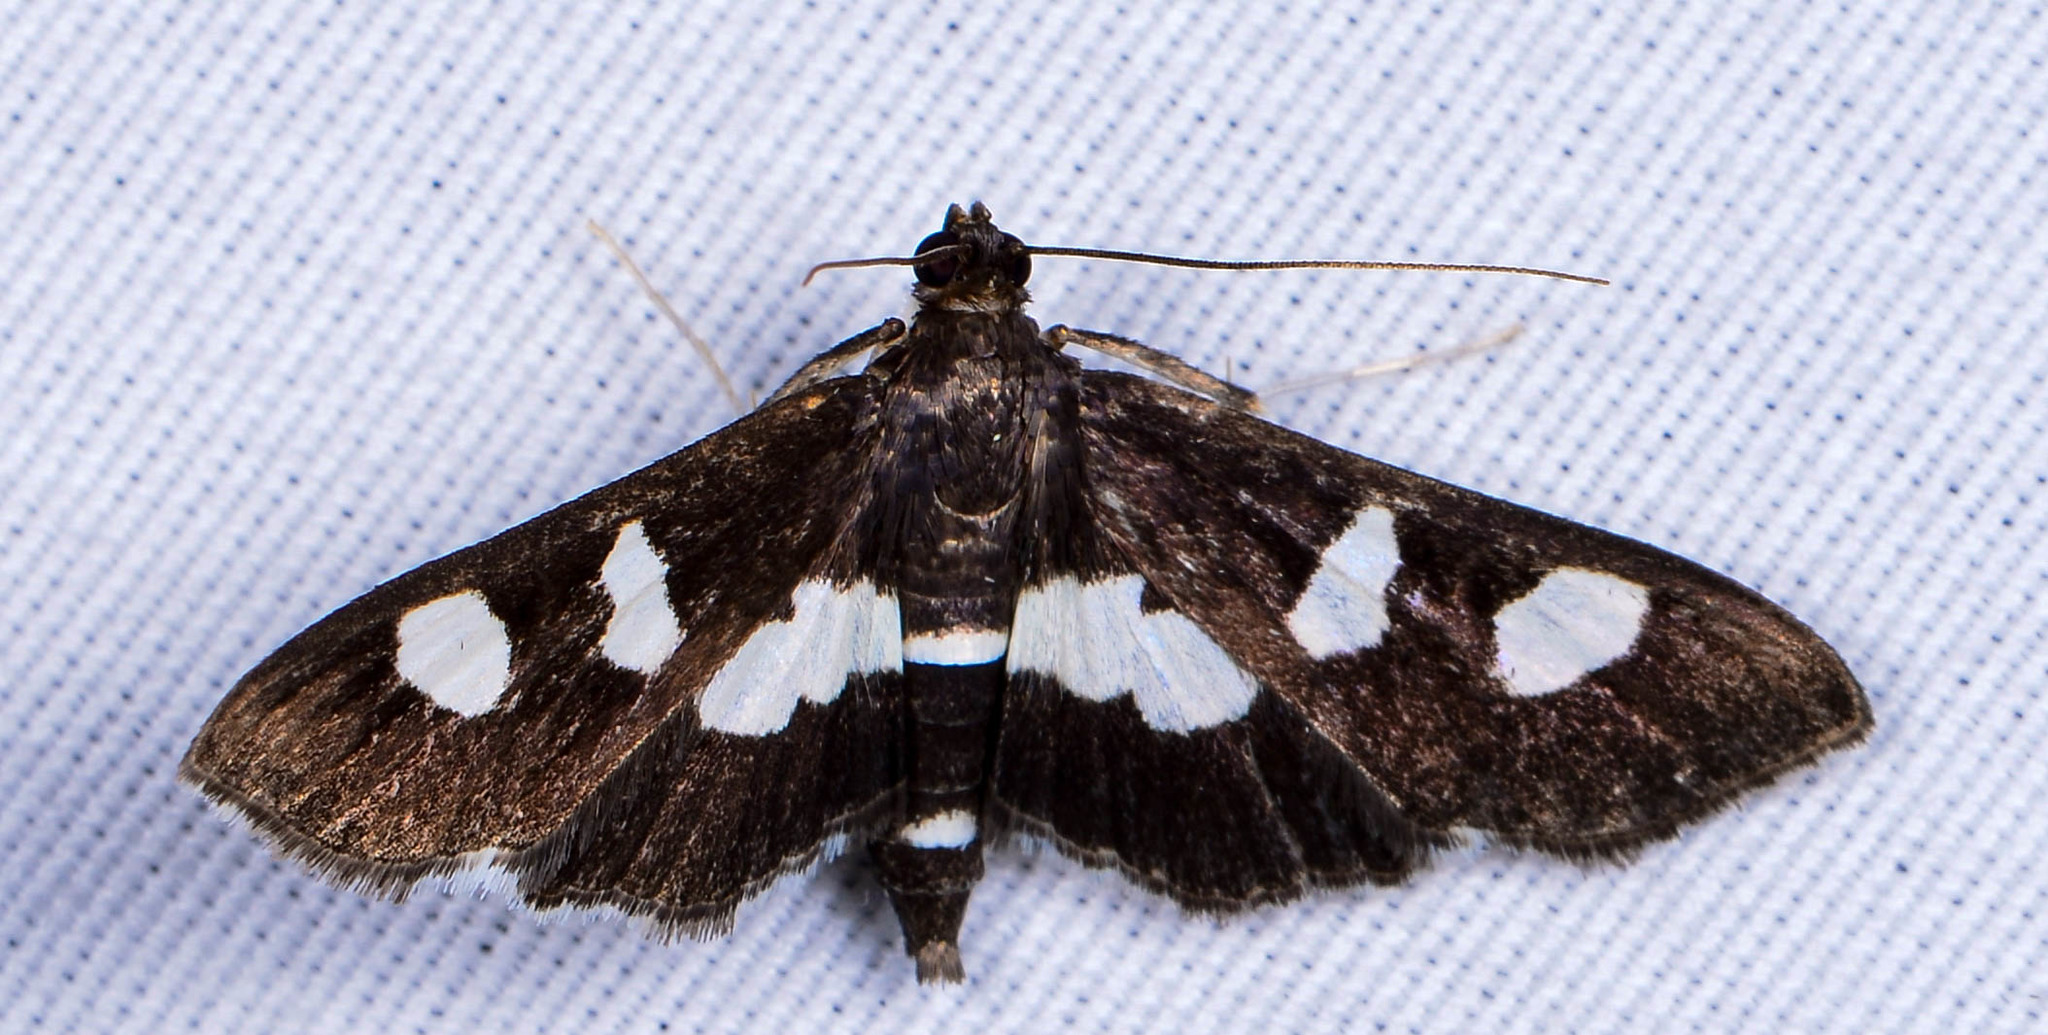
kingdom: Animalia
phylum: Arthropoda
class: Insecta
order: Lepidoptera
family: Crambidae
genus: Desmia
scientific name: Desmia
